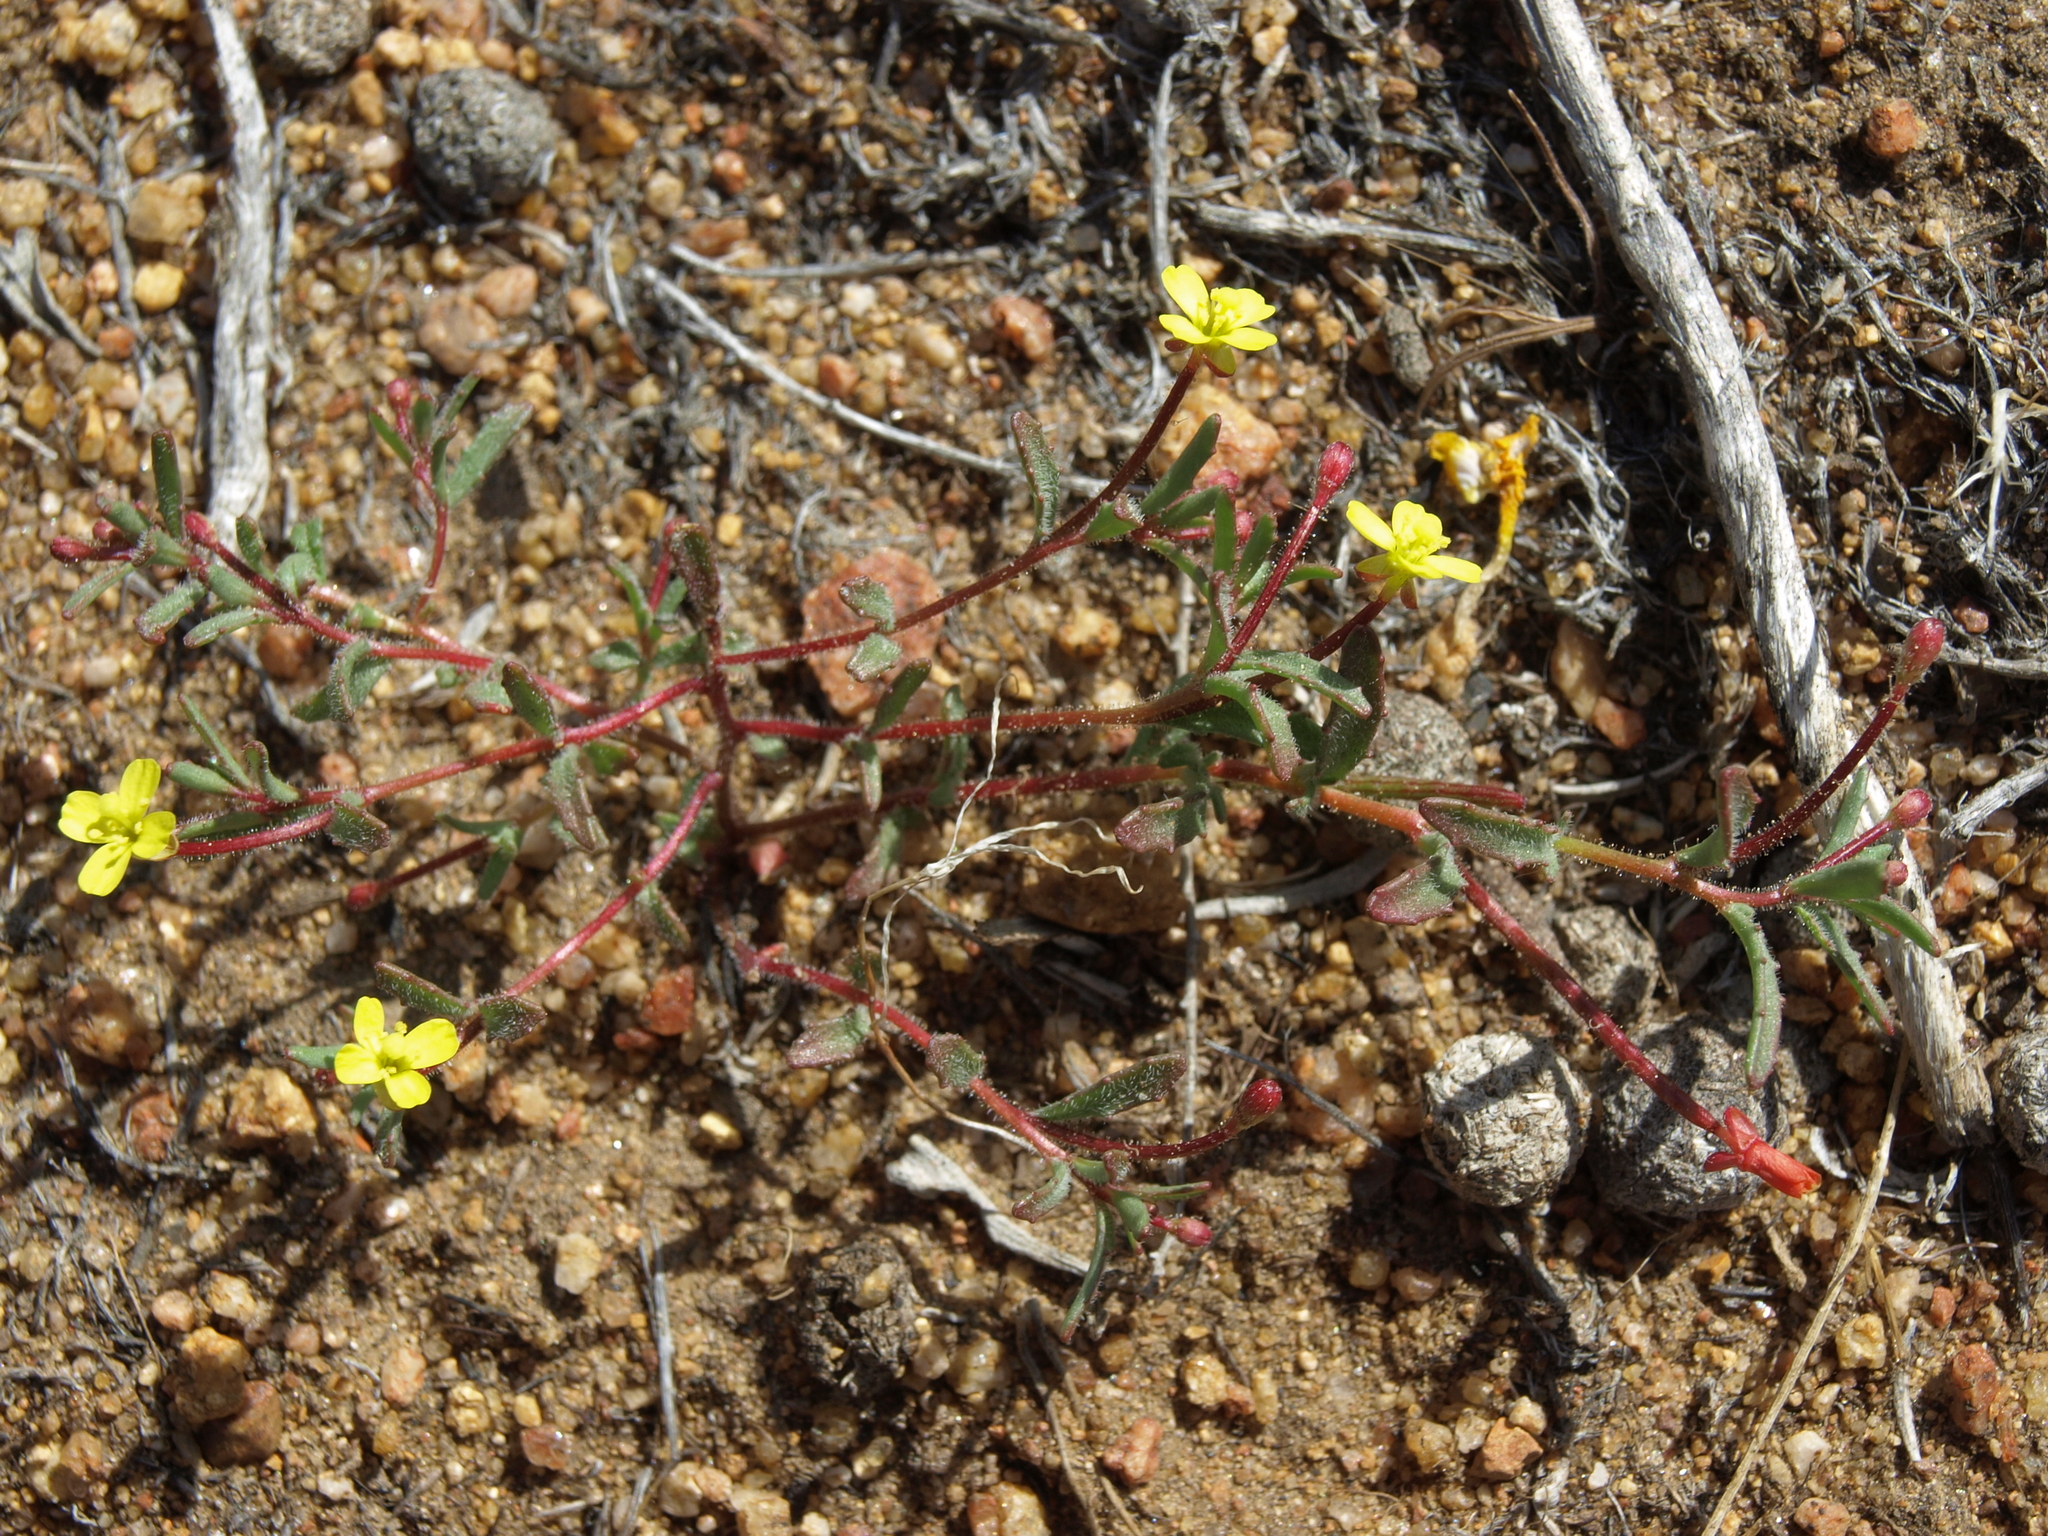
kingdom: Plantae
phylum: Tracheophyta
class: Magnoliopsida
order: Myrtales
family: Onagraceae
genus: Camissonia
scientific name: Camissonia contorta
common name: Contorted suncup
